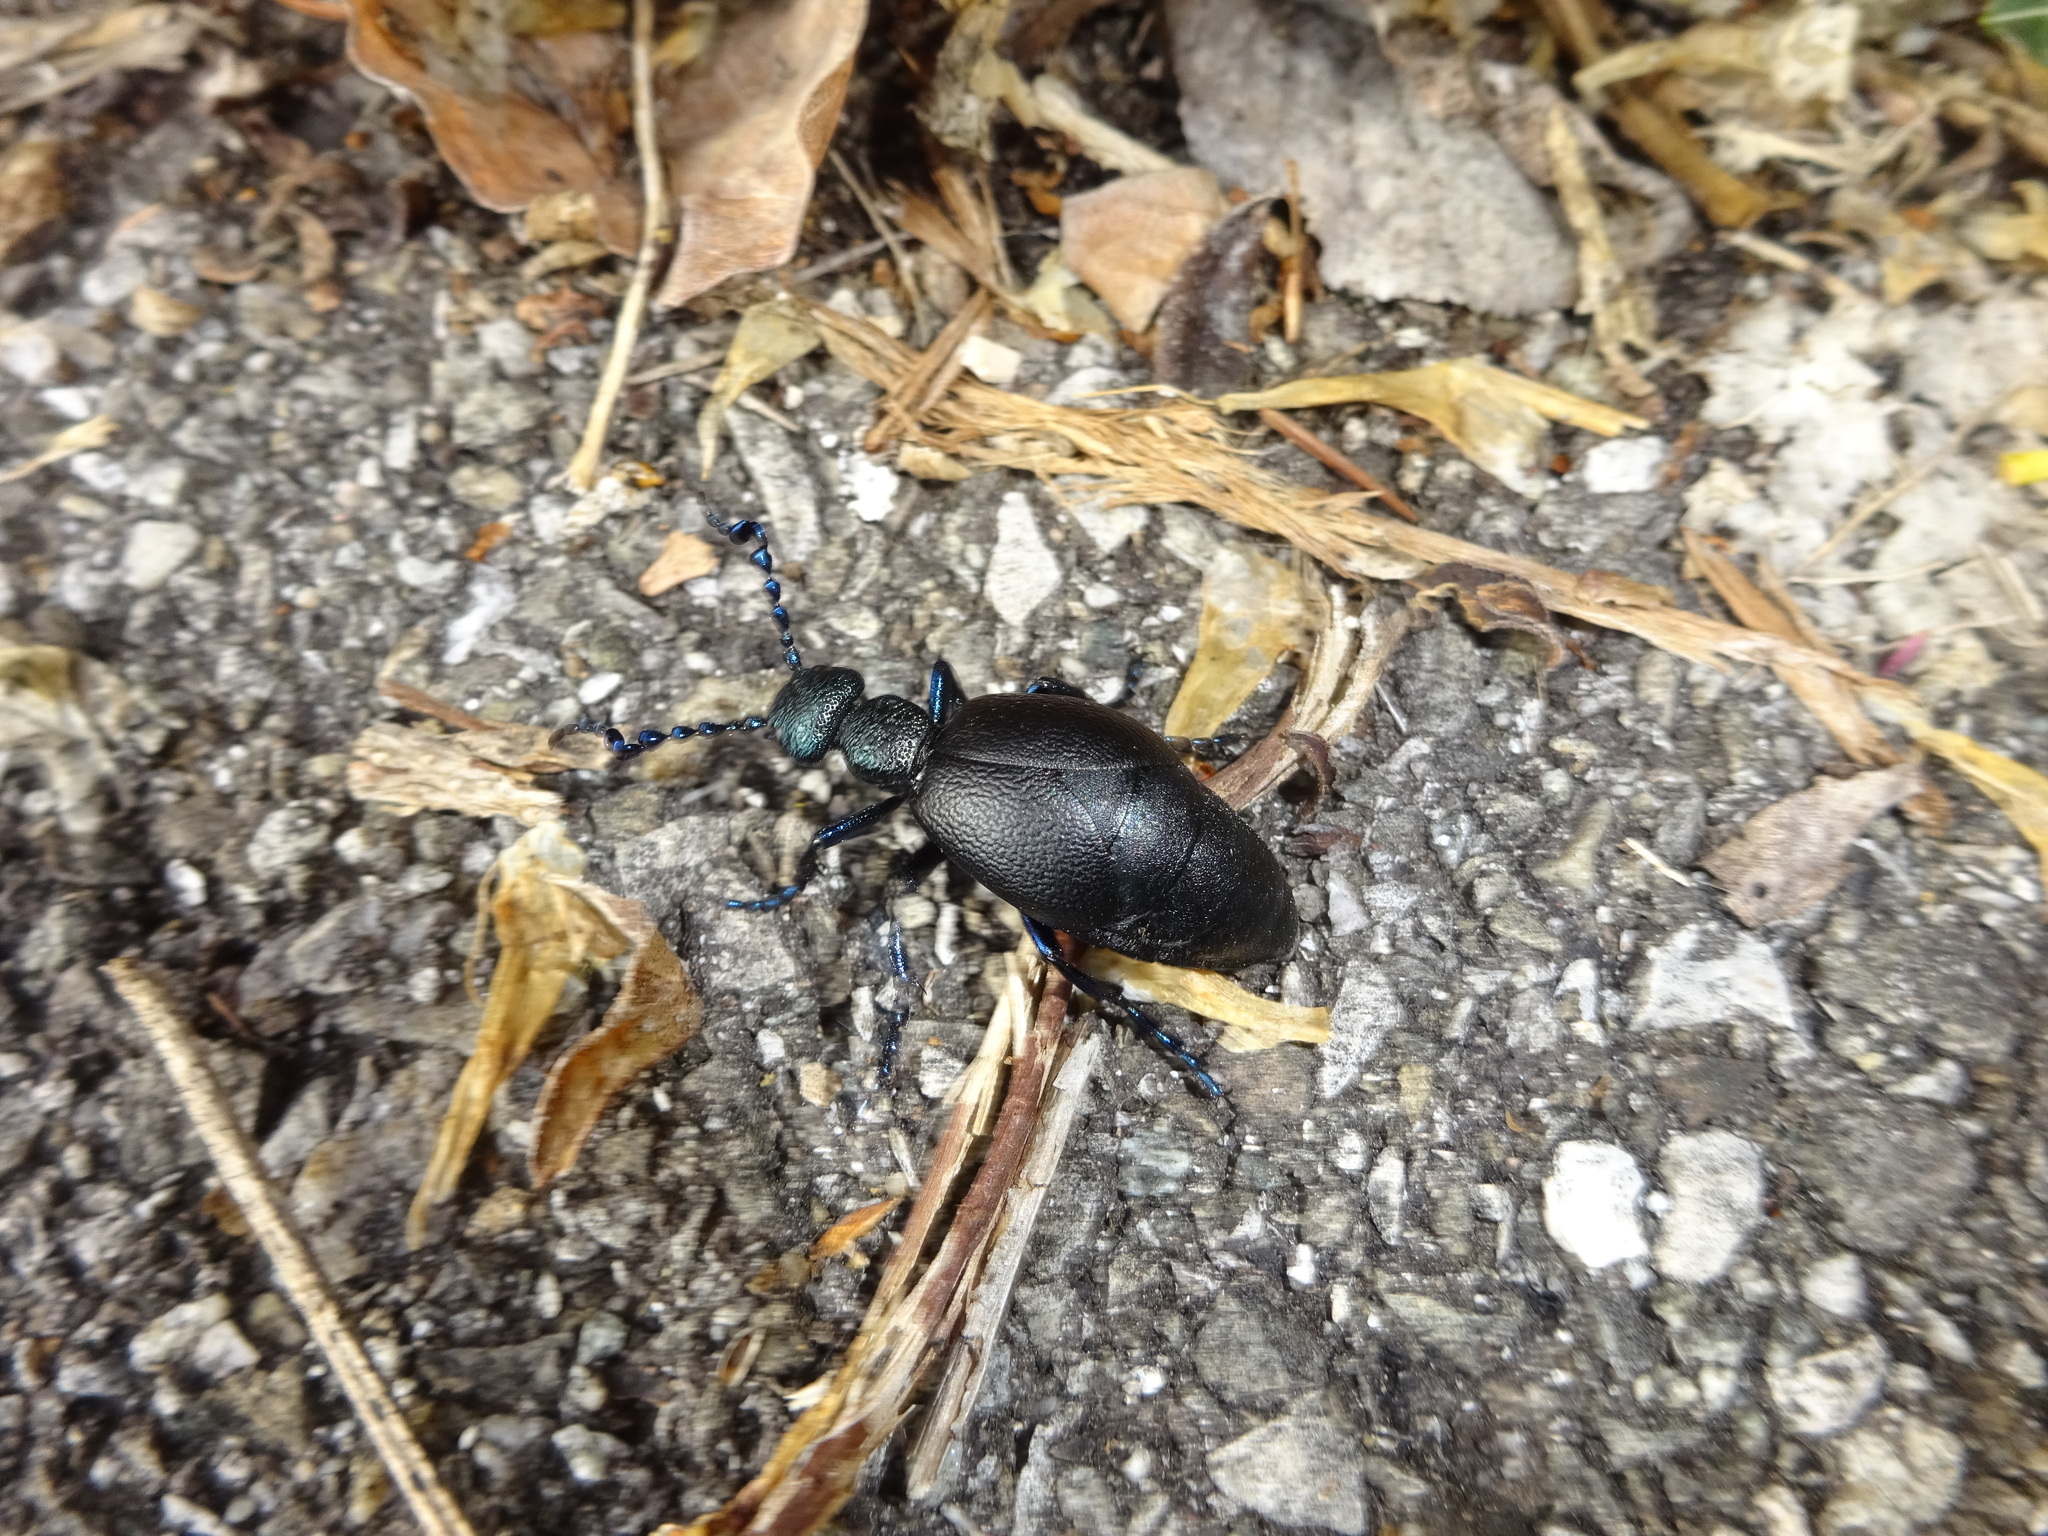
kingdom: Animalia
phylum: Arthropoda
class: Insecta
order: Coleoptera
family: Meloidae
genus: Meloe
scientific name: Meloe proscarabaeus
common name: Black oil-beetle
